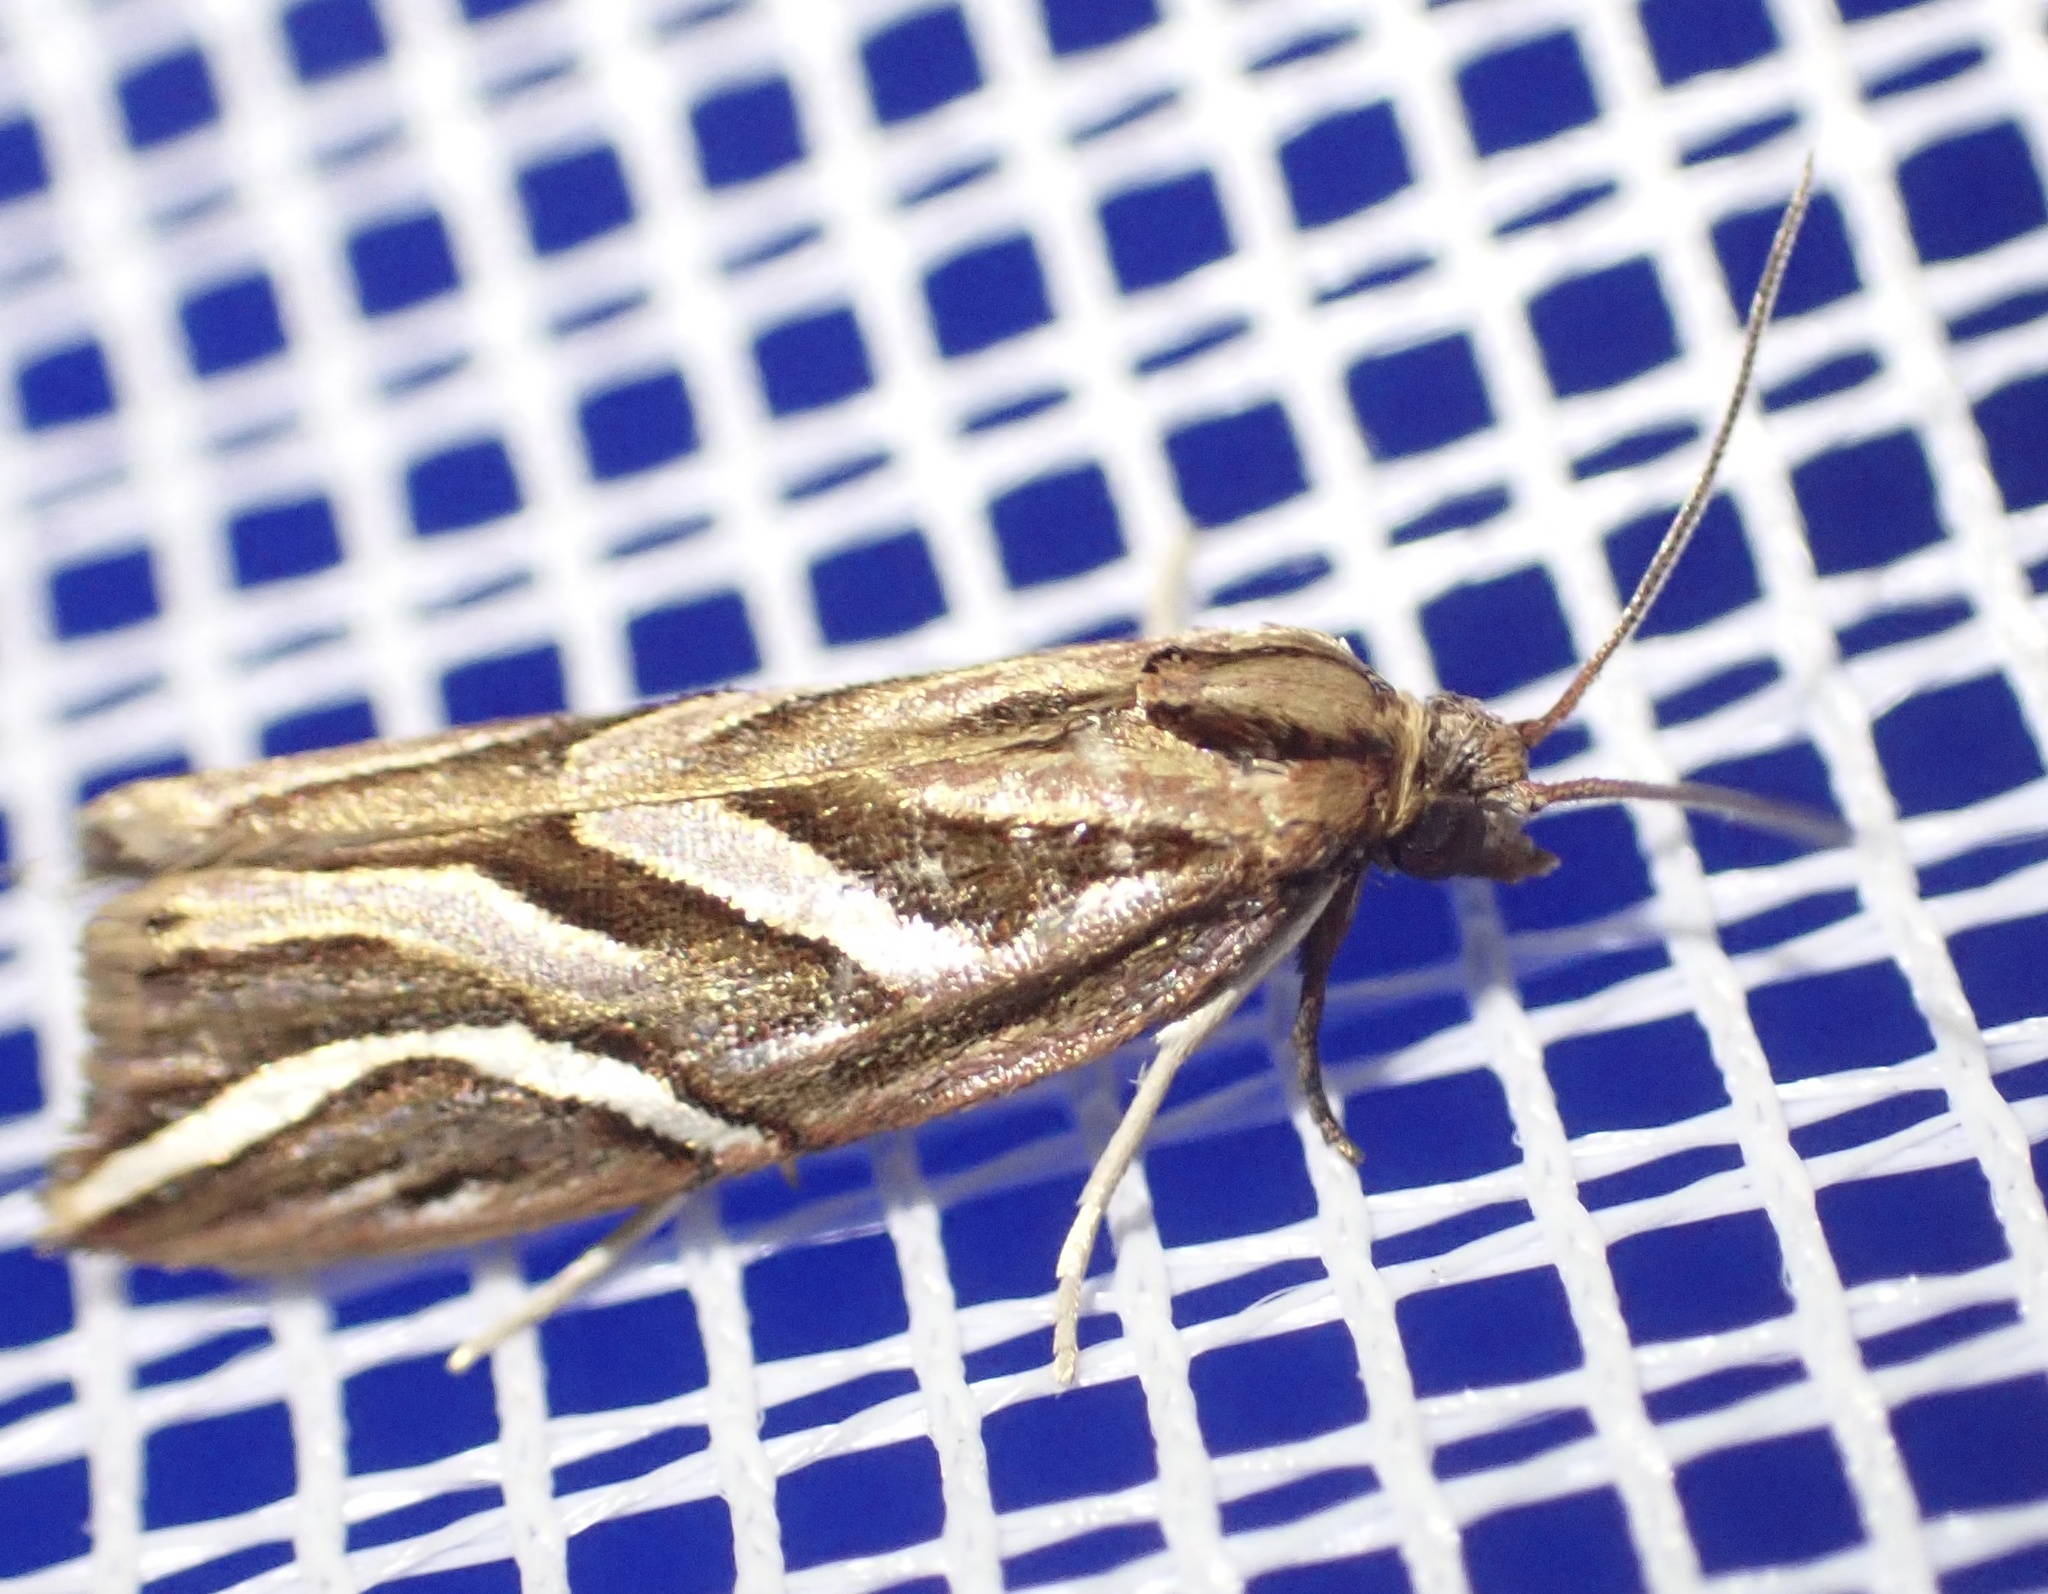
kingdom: Animalia
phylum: Arthropoda
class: Insecta
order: Lepidoptera
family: Tortricidae
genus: Goboea
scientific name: Goboea copiosana
